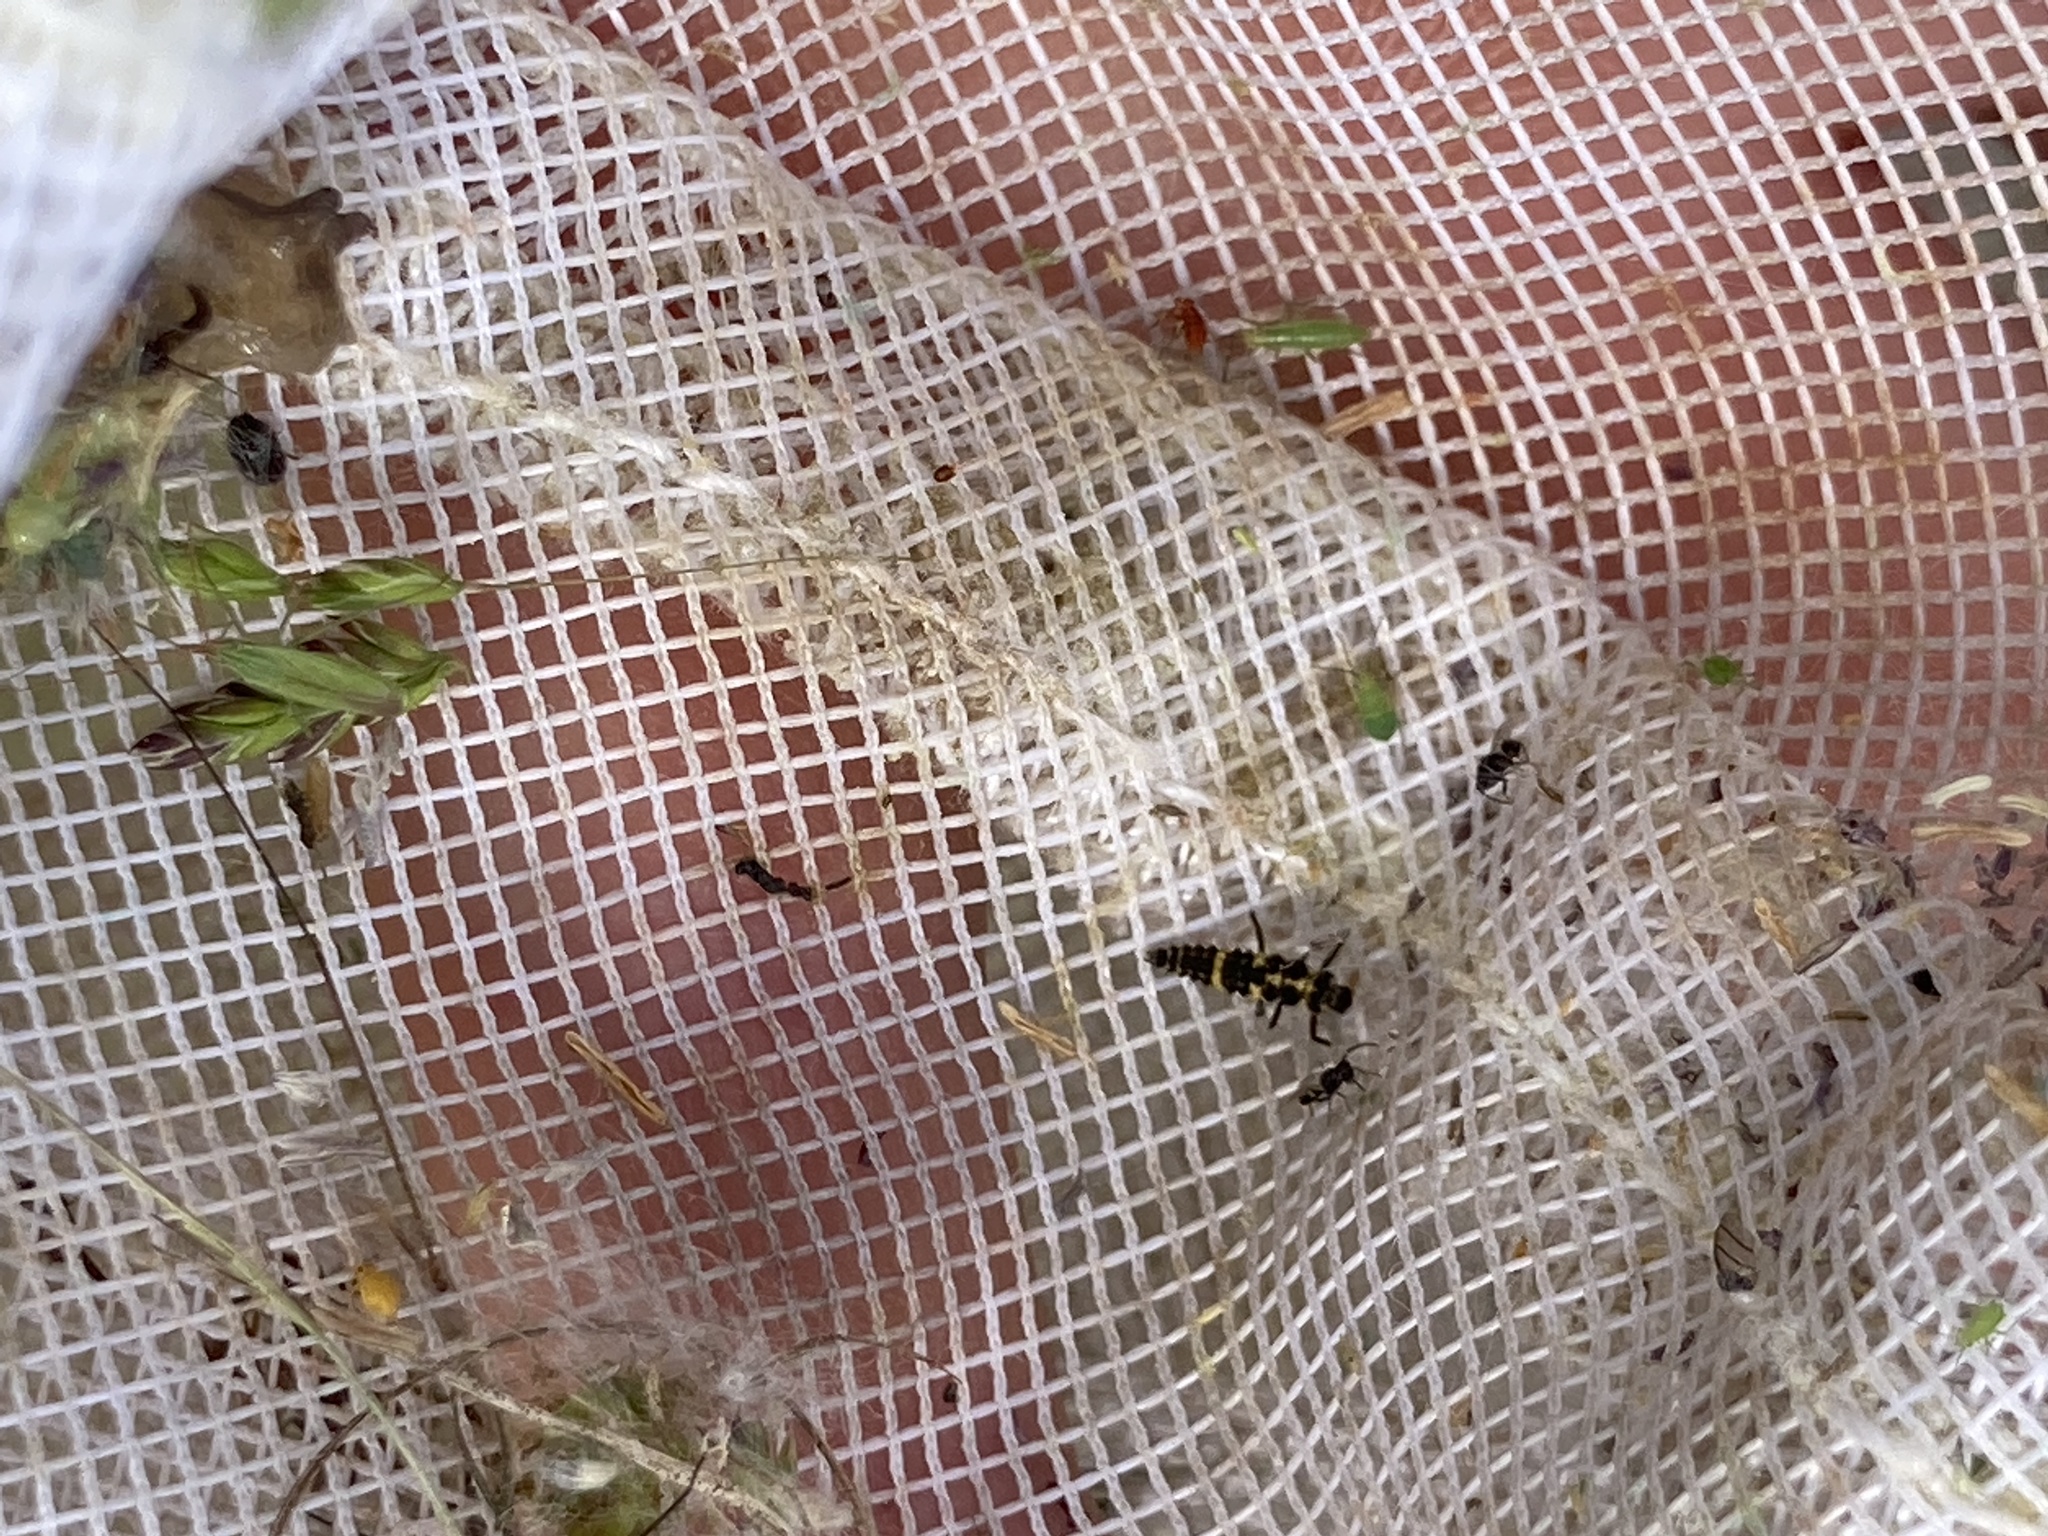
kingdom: Animalia
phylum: Arthropoda
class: Insecta
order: Coleoptera
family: Coccinellidae
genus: Propylaea
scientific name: Propylaea quatuordecimpunctata
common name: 14-spotted ladybird beetle
